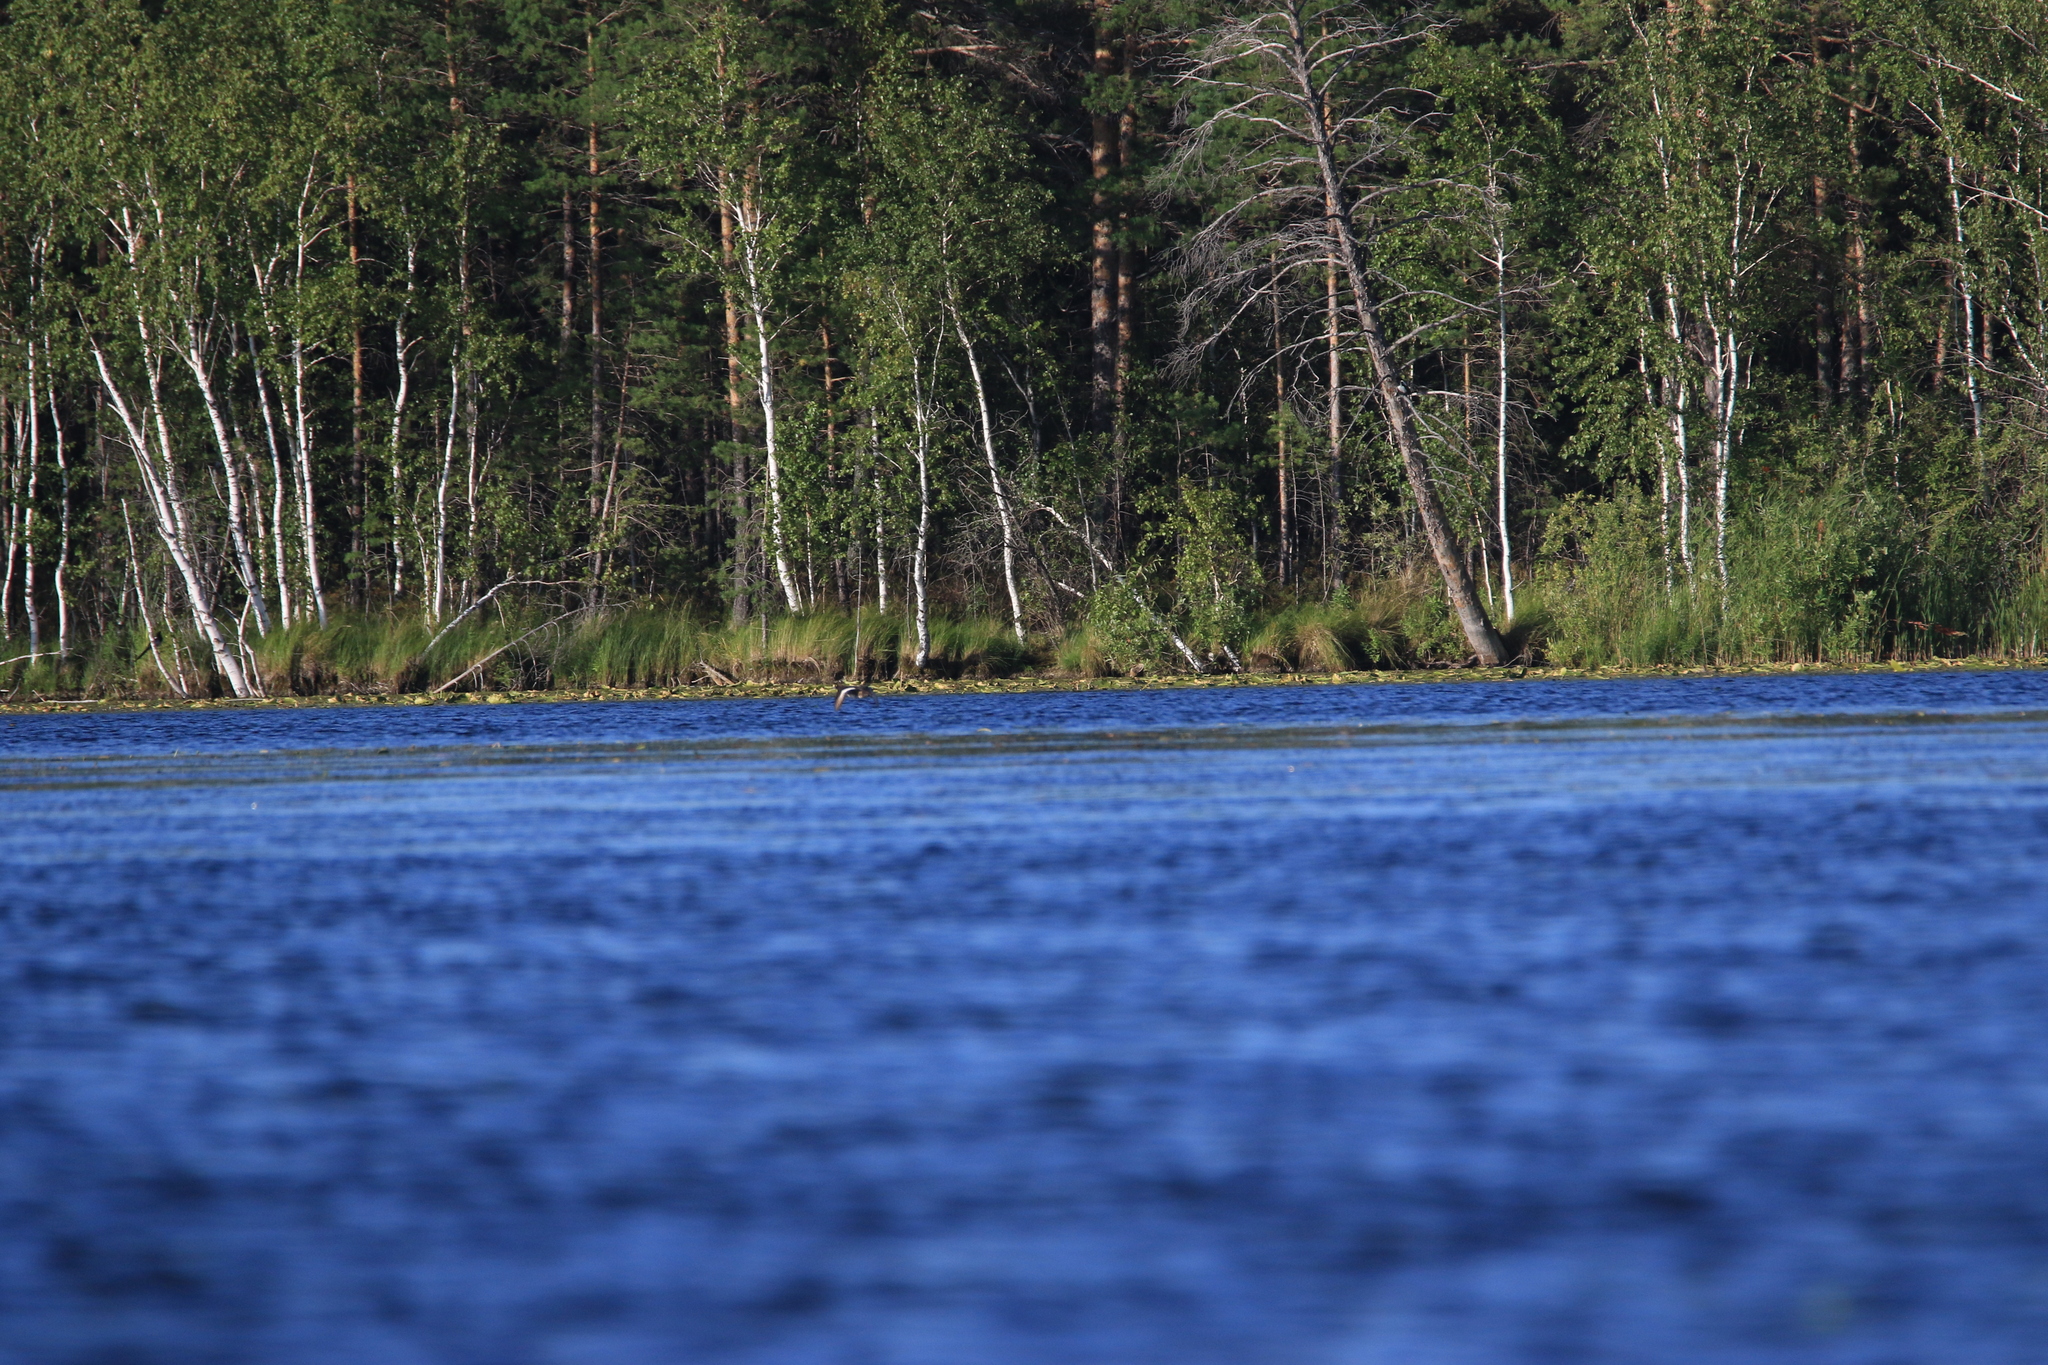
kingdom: Animalia
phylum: Chordata
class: Aves
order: Anseriformes
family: Anatidae
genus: Anas
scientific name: Anas platyrhynchos
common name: Mallard
